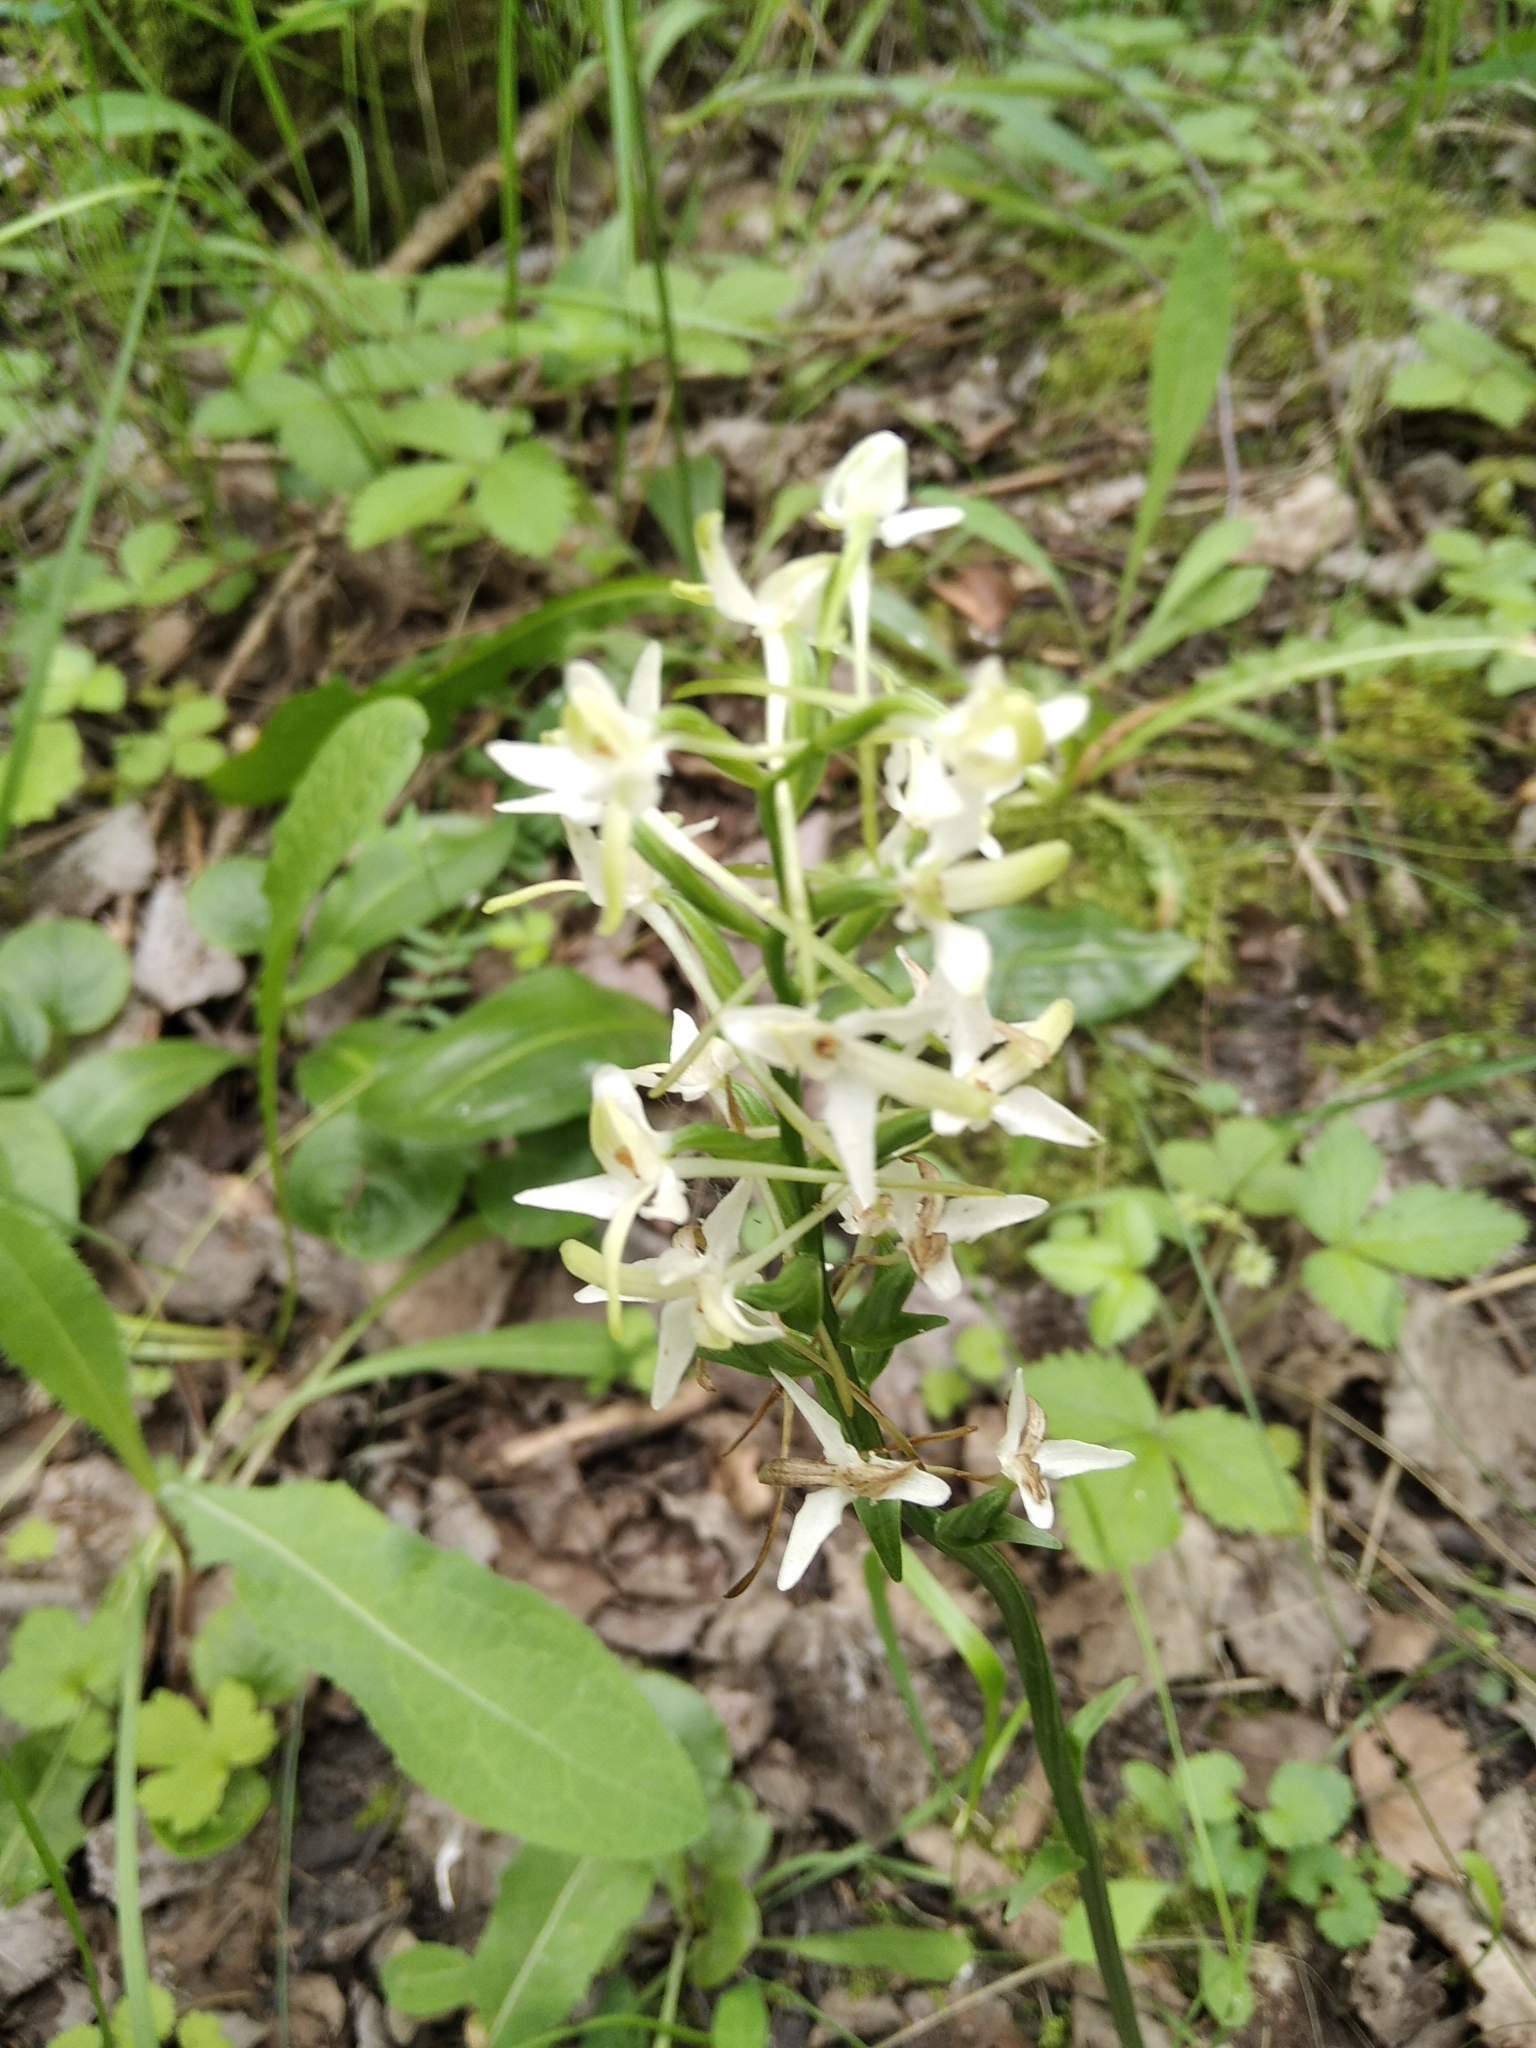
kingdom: Plantae
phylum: Tracheophyta
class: Liliopsida
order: Asparagales
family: Orchidaceae
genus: Platanthera
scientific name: Platanthera bifolia
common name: Lesser butterfly-orchid
